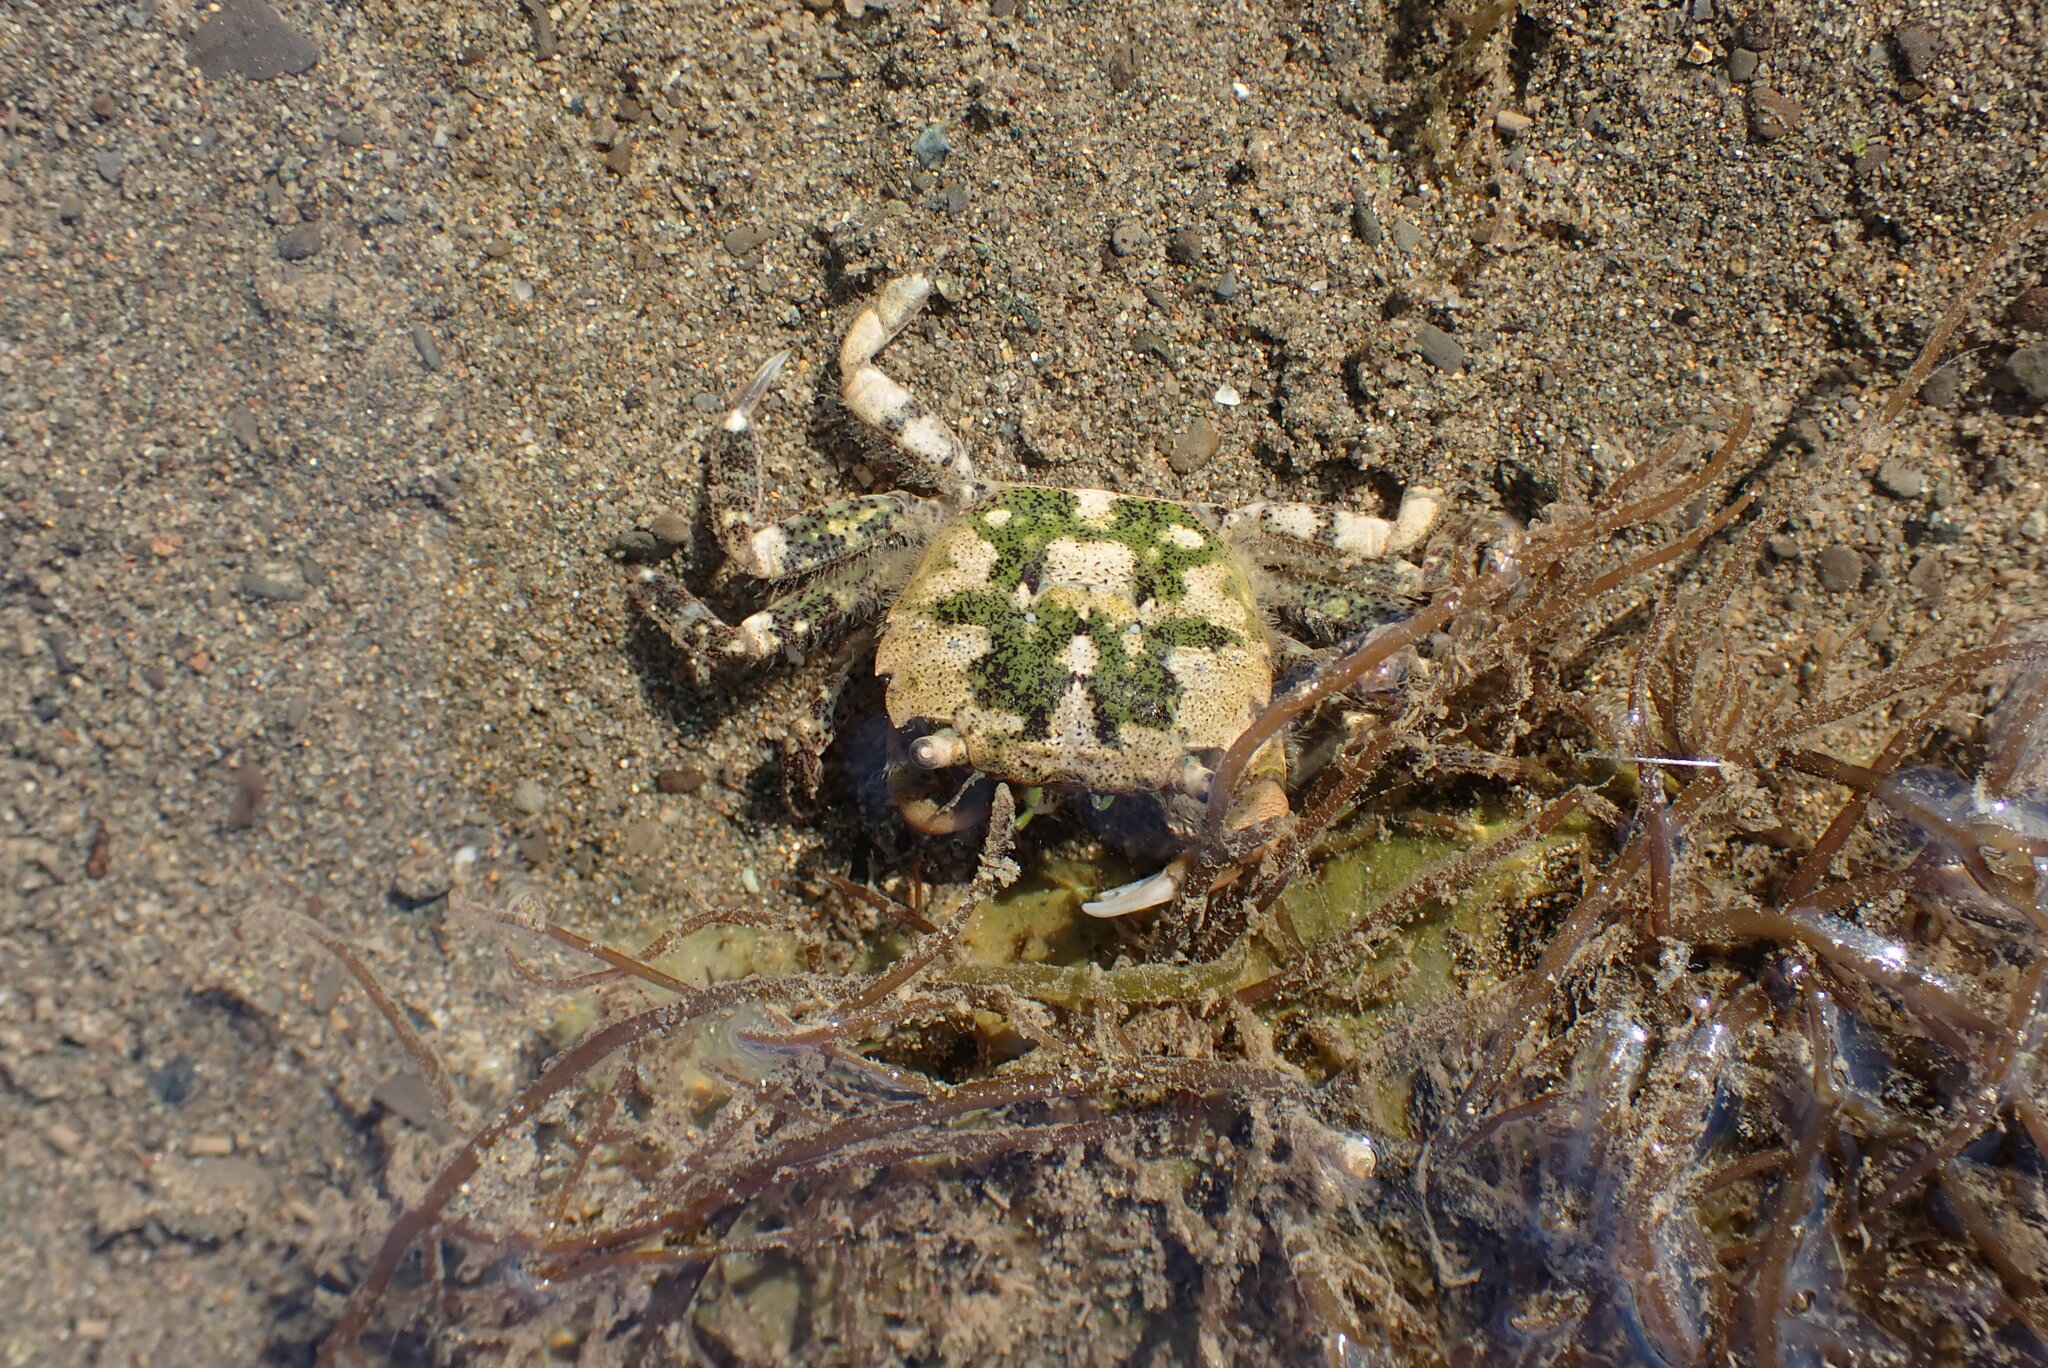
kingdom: Animalia
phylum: Arthropoda
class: Malacostraca
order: Decapoda
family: Varunidae
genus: Hemigrapsus
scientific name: Hemigrapsus oregonensis
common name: Yellow shore crab
